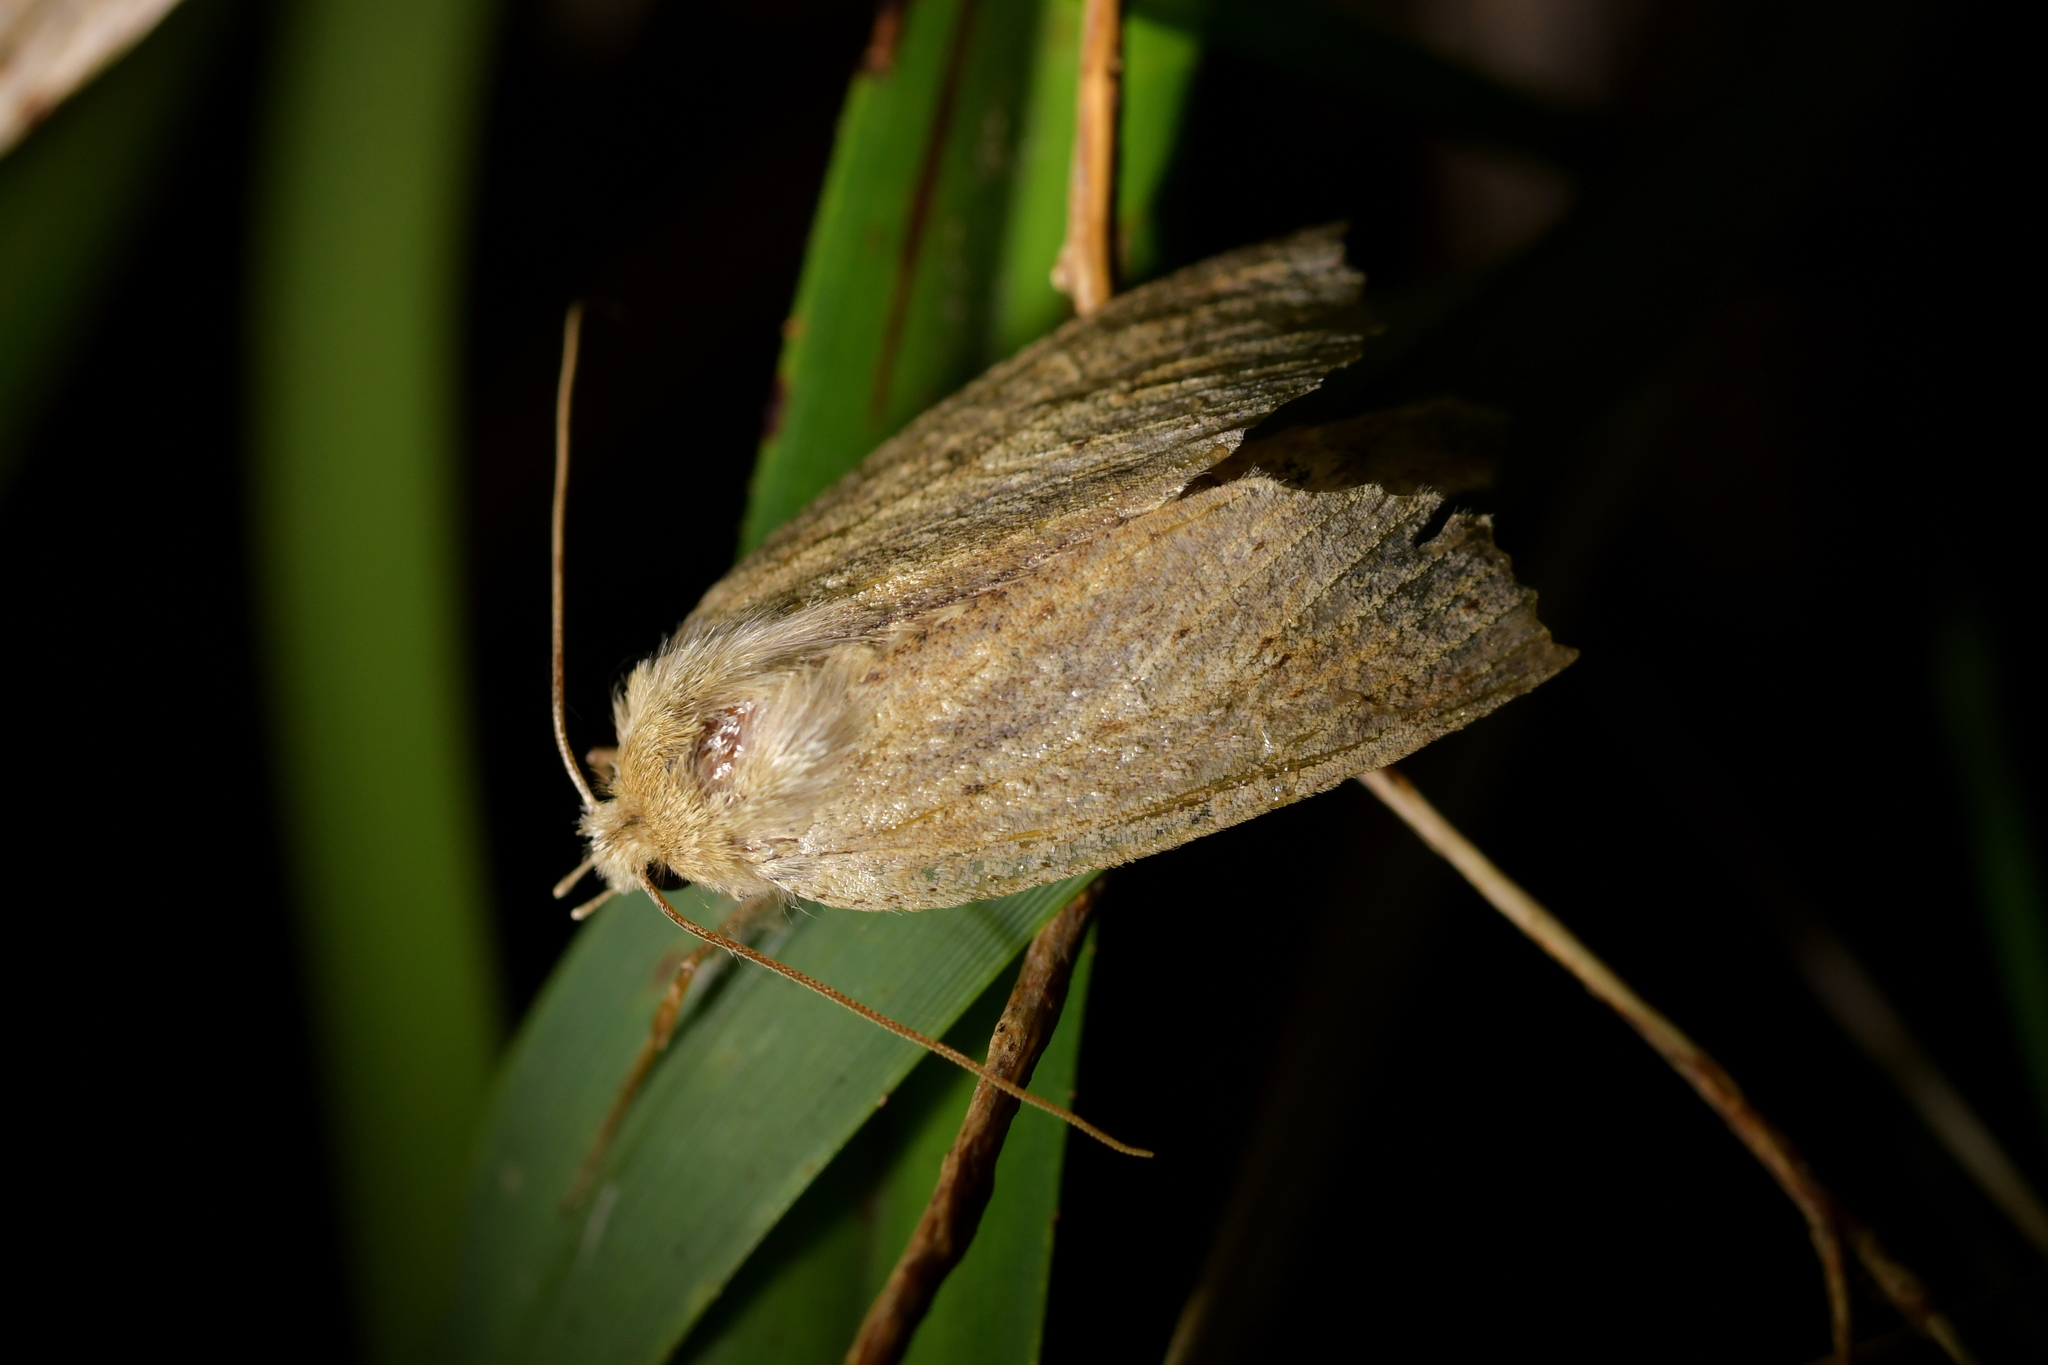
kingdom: Animalia
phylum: Arthropoda
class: Insecta
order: Lepidoptera
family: Geometridae
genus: Declana
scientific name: Declana leptomera
